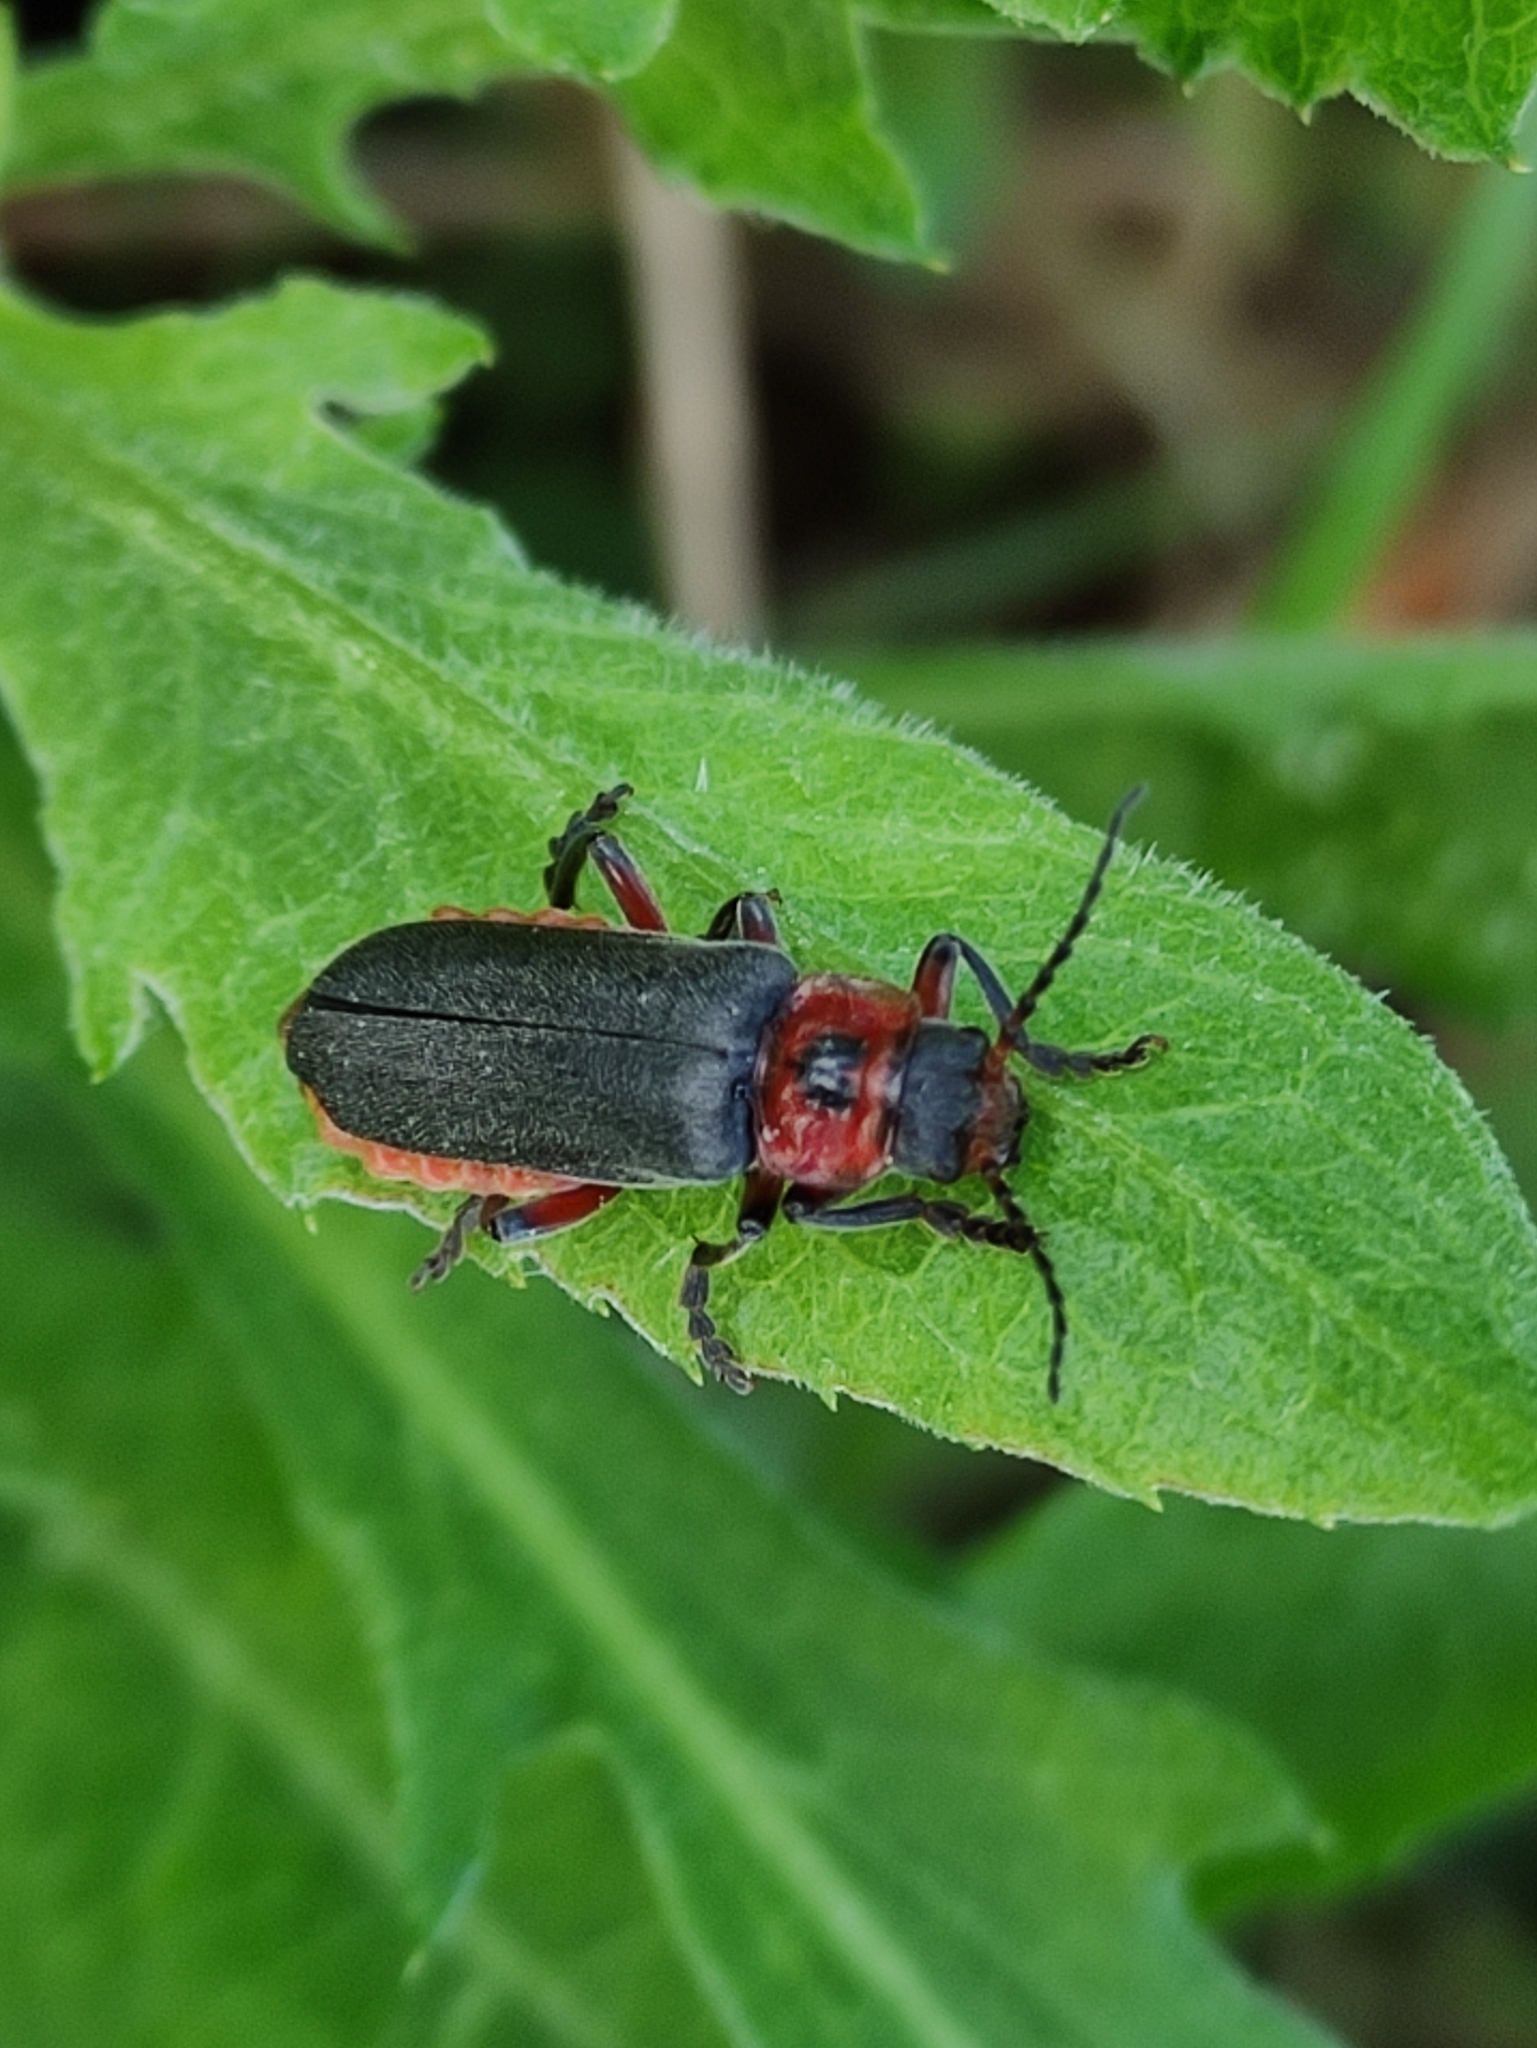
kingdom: Animalia
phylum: Arthropoda
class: Insecta
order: Coleoptera
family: Cantharidae
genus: Cantharis
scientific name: Cantharis rustica
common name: Soldier beetle
